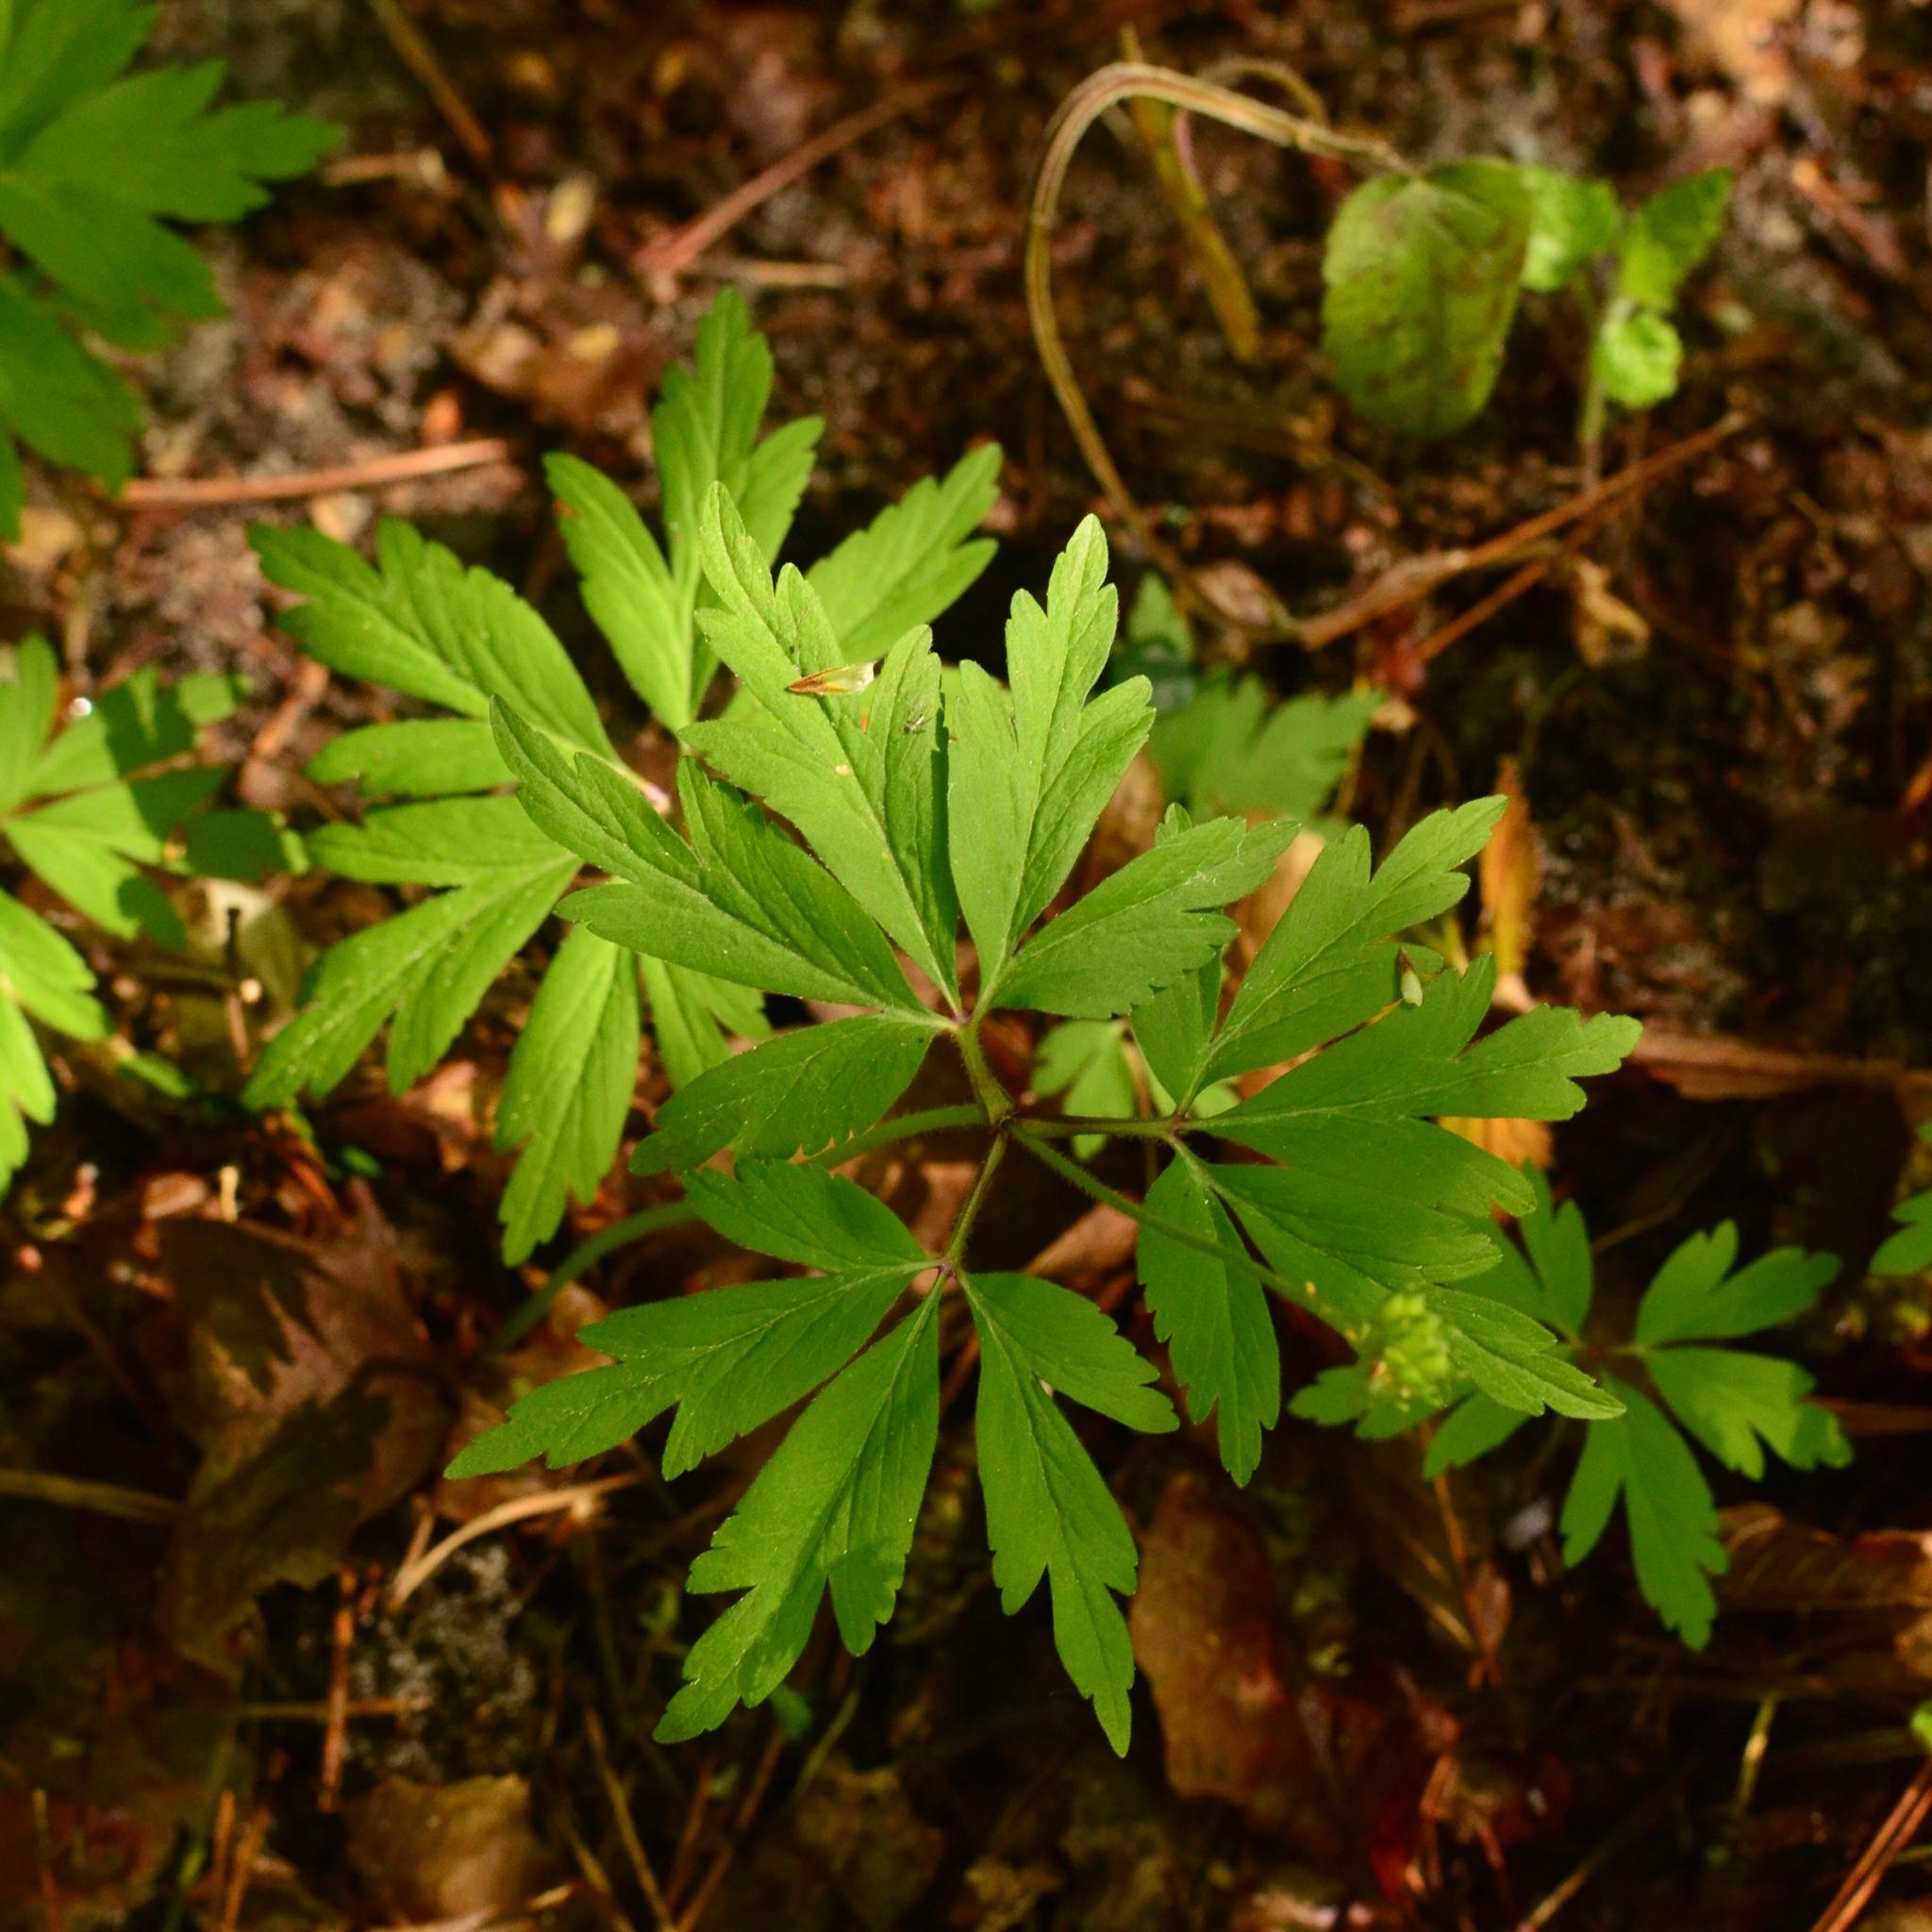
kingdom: Plantae
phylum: Tracheophyta
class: Magnoliopsida
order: Ranunculales
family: Ranunculaceae
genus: Anemone
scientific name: Anemone nemorosa
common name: Wood anemone
